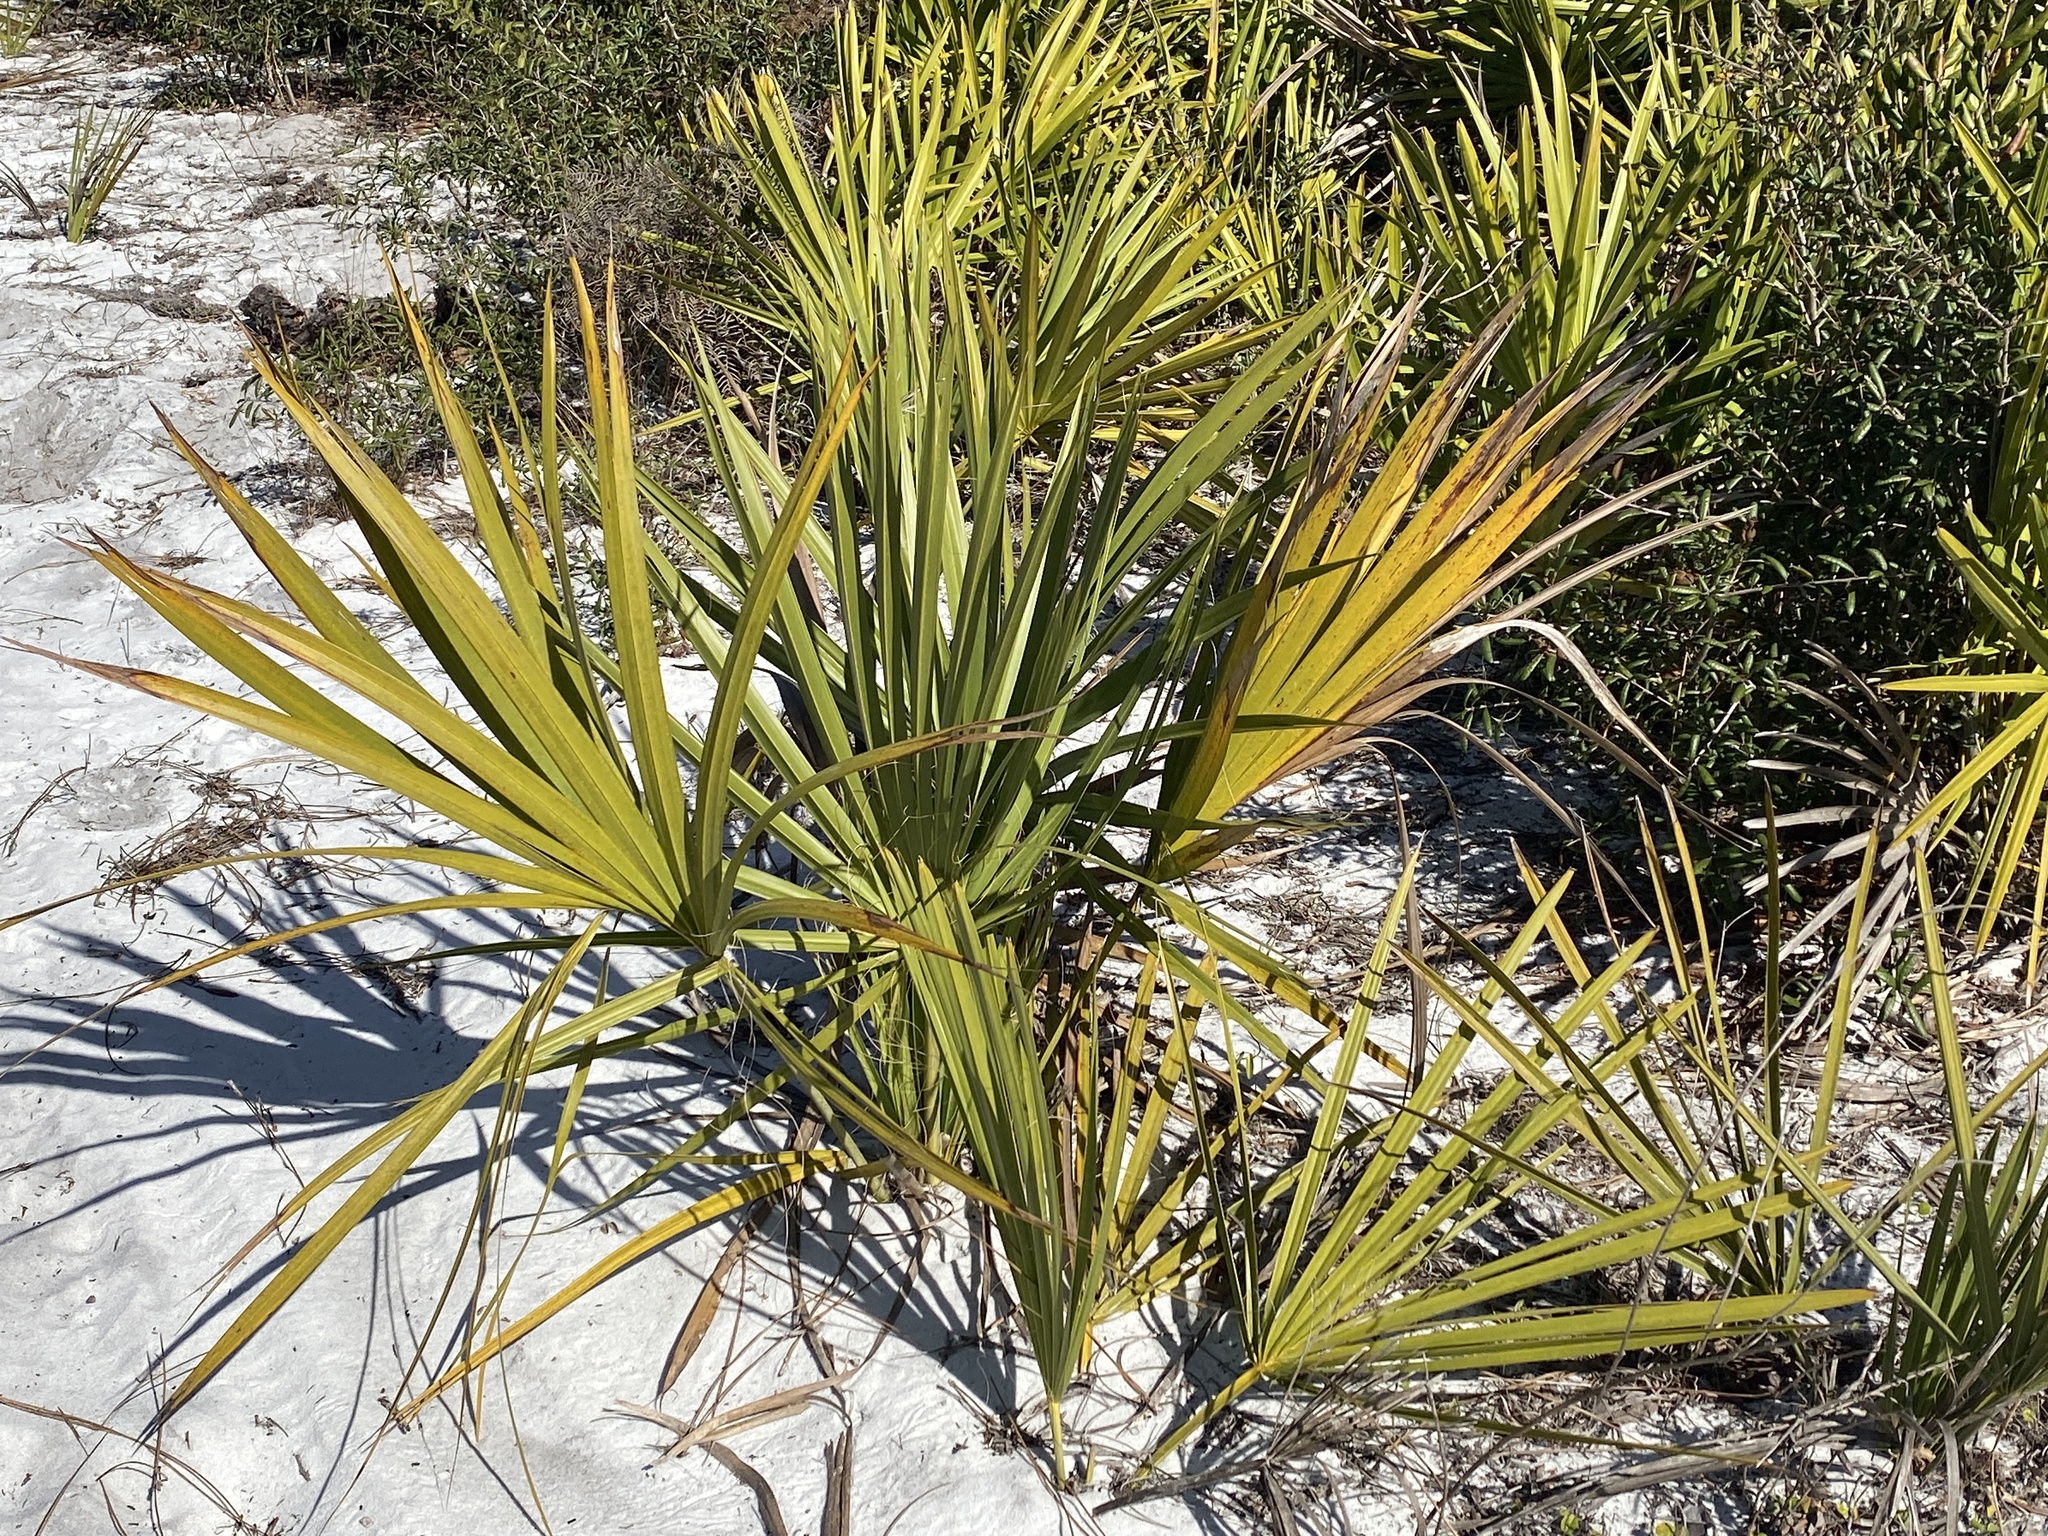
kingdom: Plantae
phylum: Tracheophyta
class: Liliopsida
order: Arecales
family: Arecaceae
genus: Sabal
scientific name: Sabal etonia
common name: Dwarf palmetto
